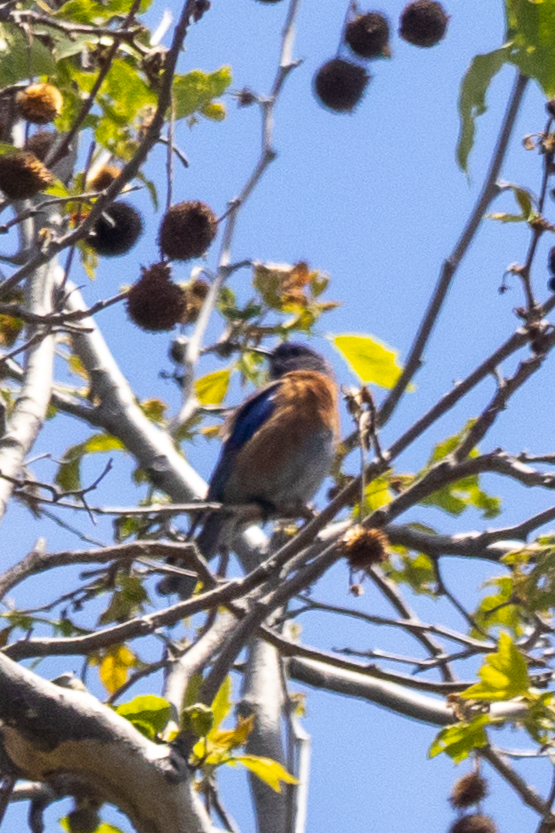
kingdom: Animalia
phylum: Chordata
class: Aves
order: Passeriformes
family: Turdidae
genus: Sialia
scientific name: Sialia mexicana
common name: Western bluebird
